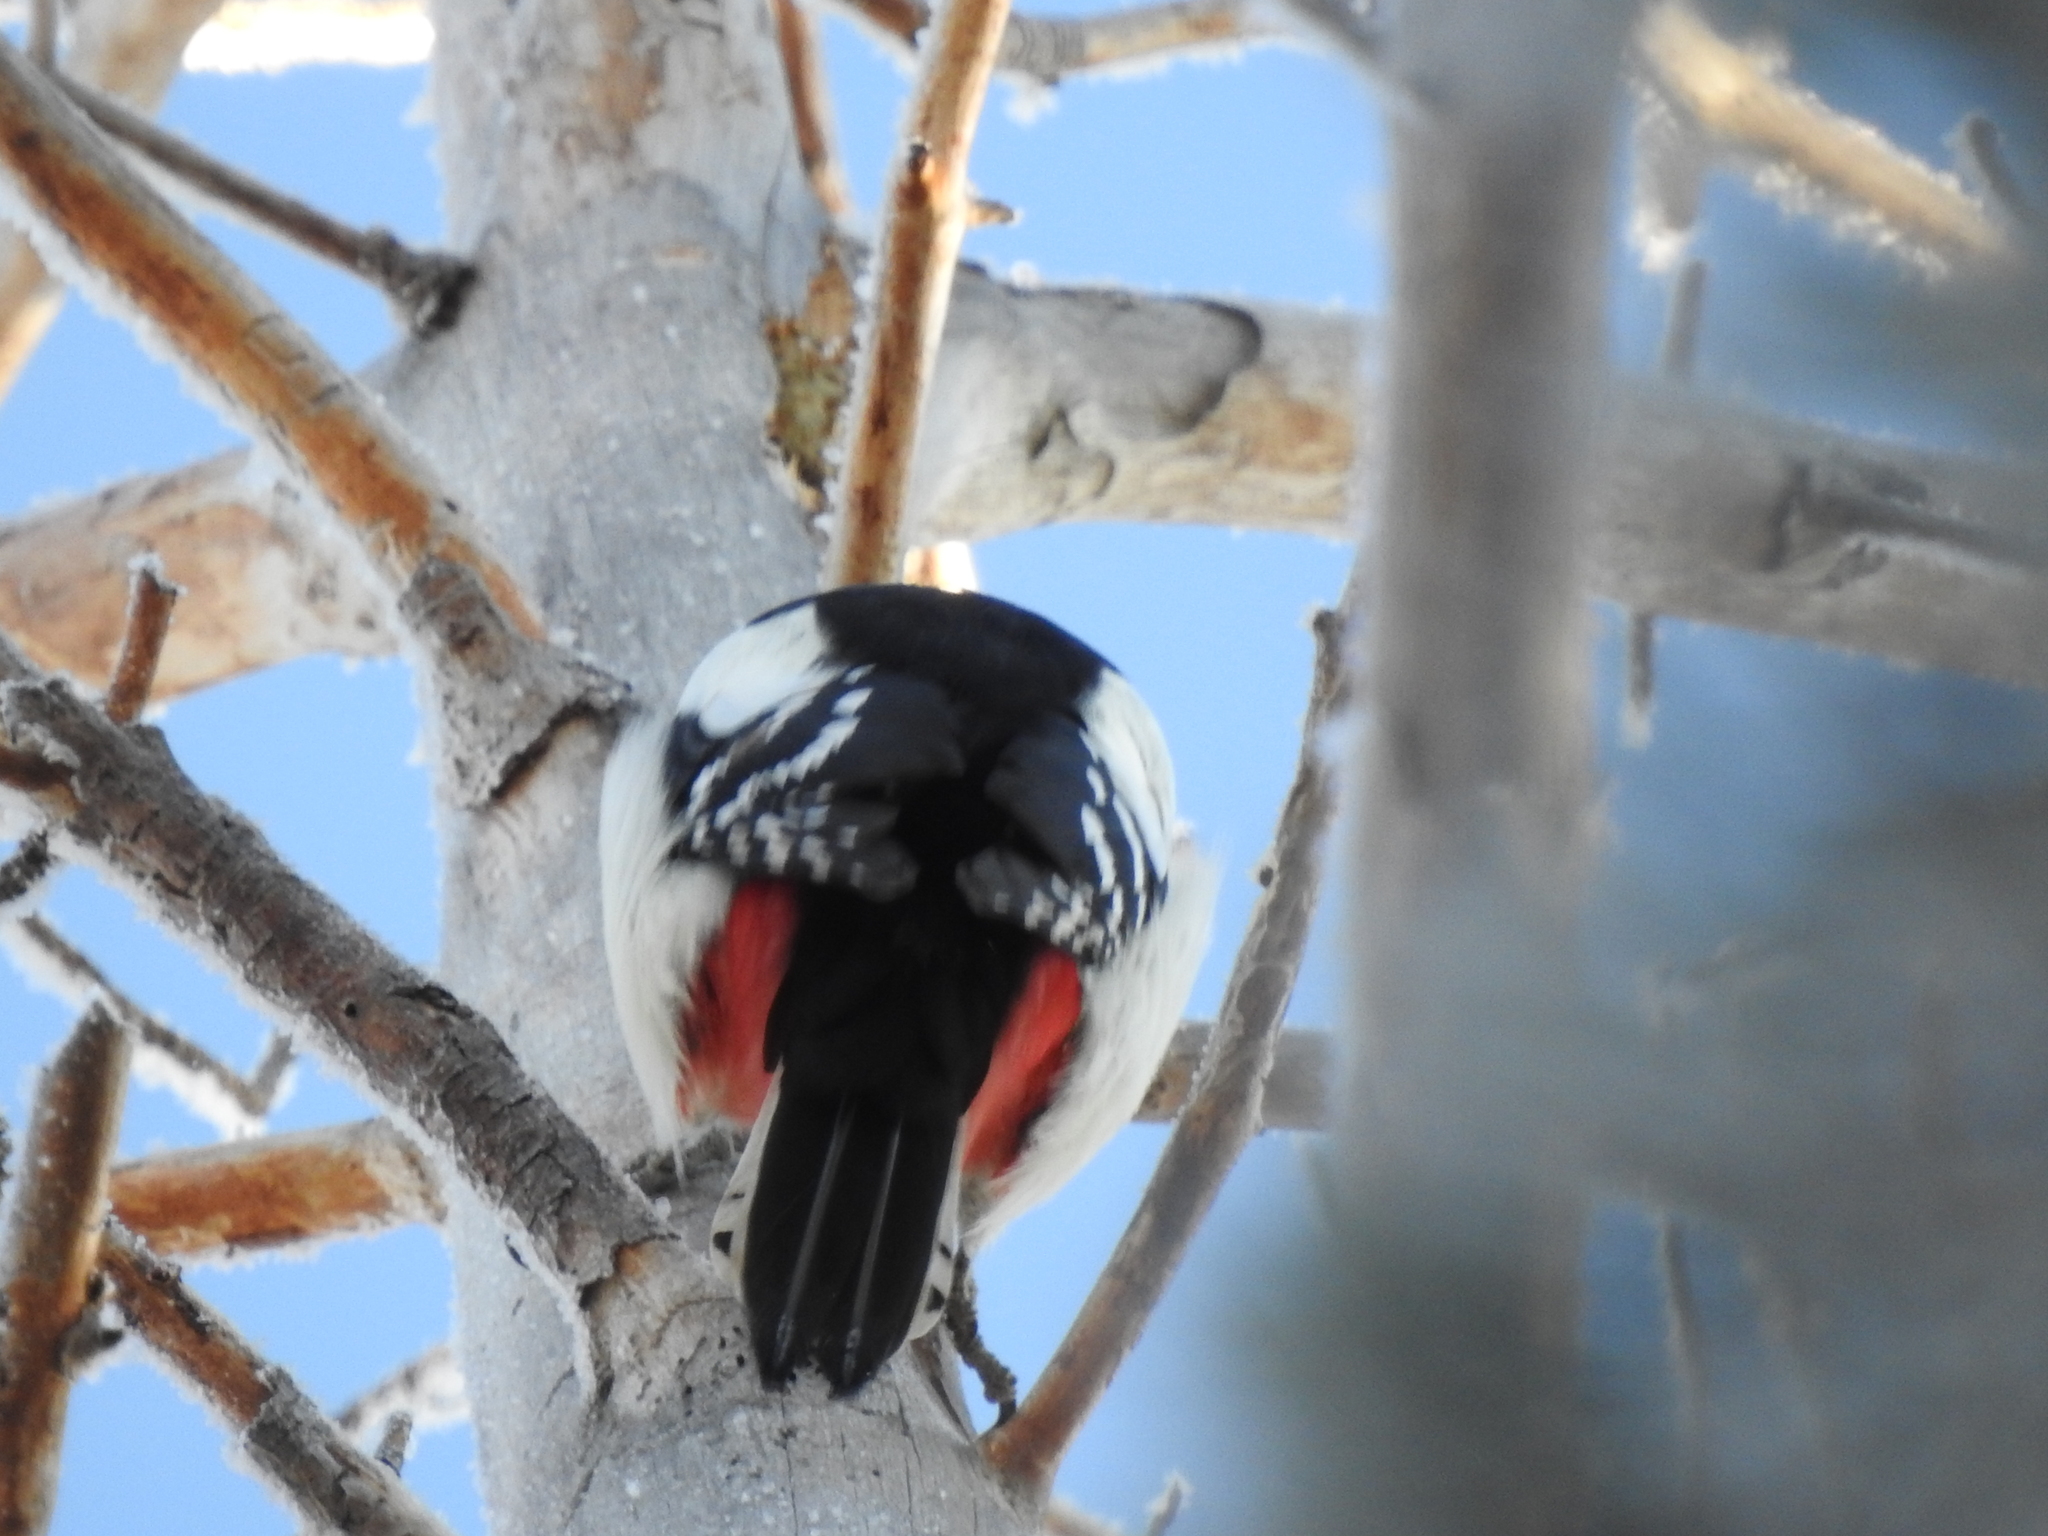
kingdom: Animalia
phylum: Chordata
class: Aves
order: Piciformes
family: Picidae
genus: Dendrocopos
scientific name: Dendrocopos major
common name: Great spotted woodpecker
